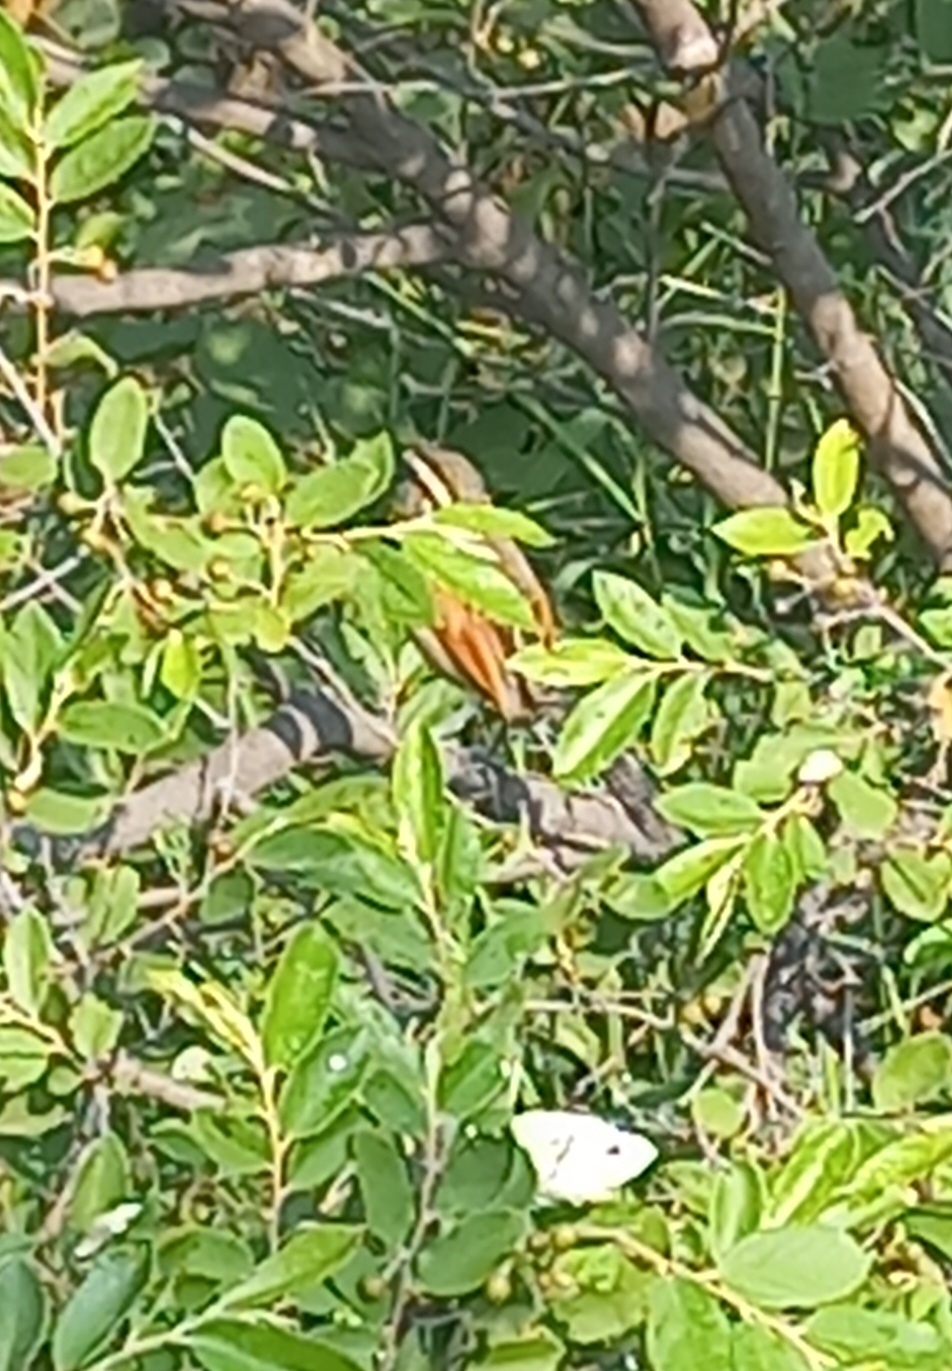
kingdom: Animalia
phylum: Chordata
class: Aves
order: Passeriformes
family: Malaconotidae
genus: Tchagra
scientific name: Tchagra australis
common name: Brown-crowned tchagra
